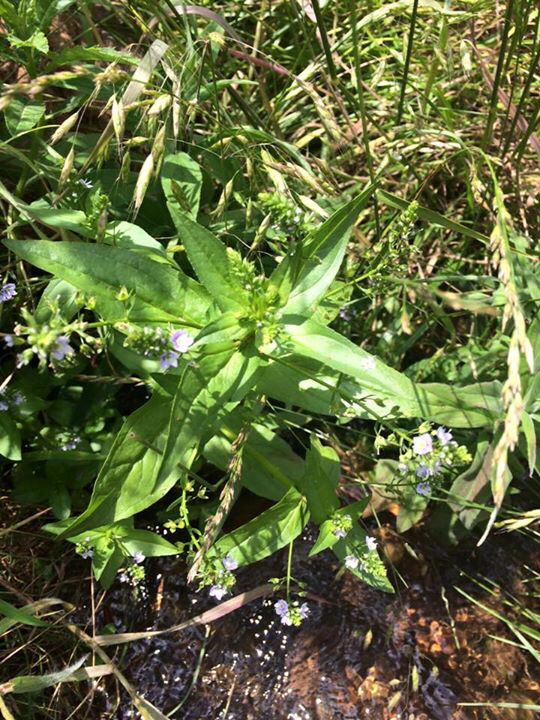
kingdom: Plantae
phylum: Tracheophyta
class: Magnoliopsida
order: Lamiales
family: Plantaginaceae
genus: Veronica
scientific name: Veronica anagallis-aquatica
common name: Water speedwell
